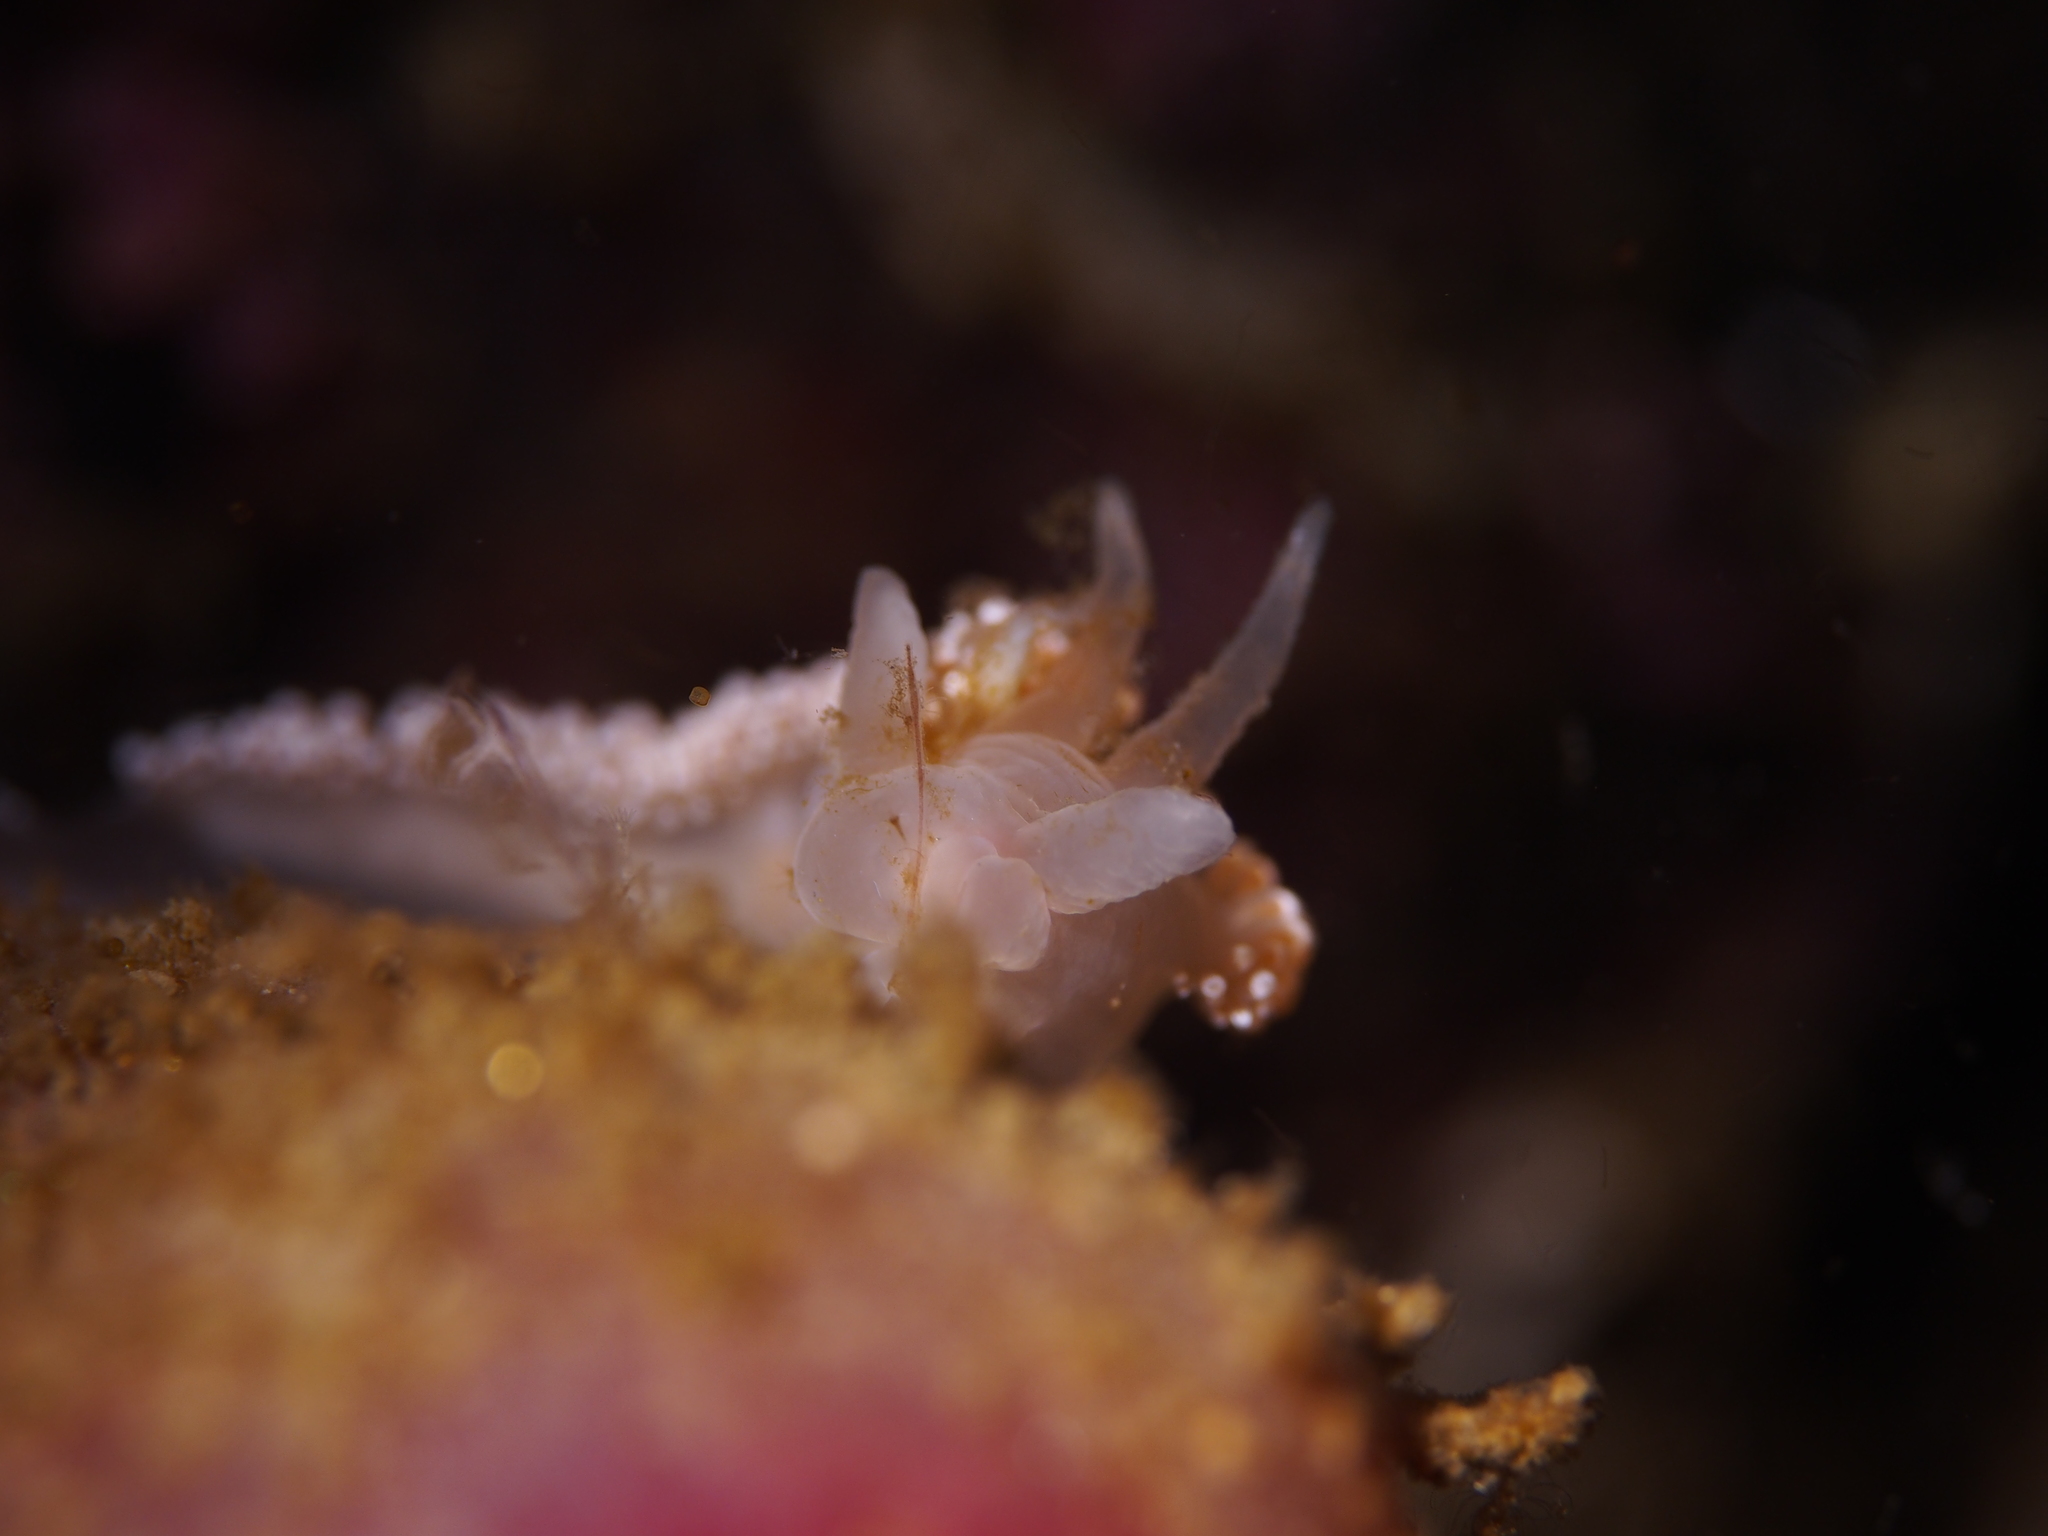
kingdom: Animalia
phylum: Mollusca
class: Gastropoda
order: Nudibranchia
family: Coryphellidae
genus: Coryphella
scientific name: Coryphella verrucosa
